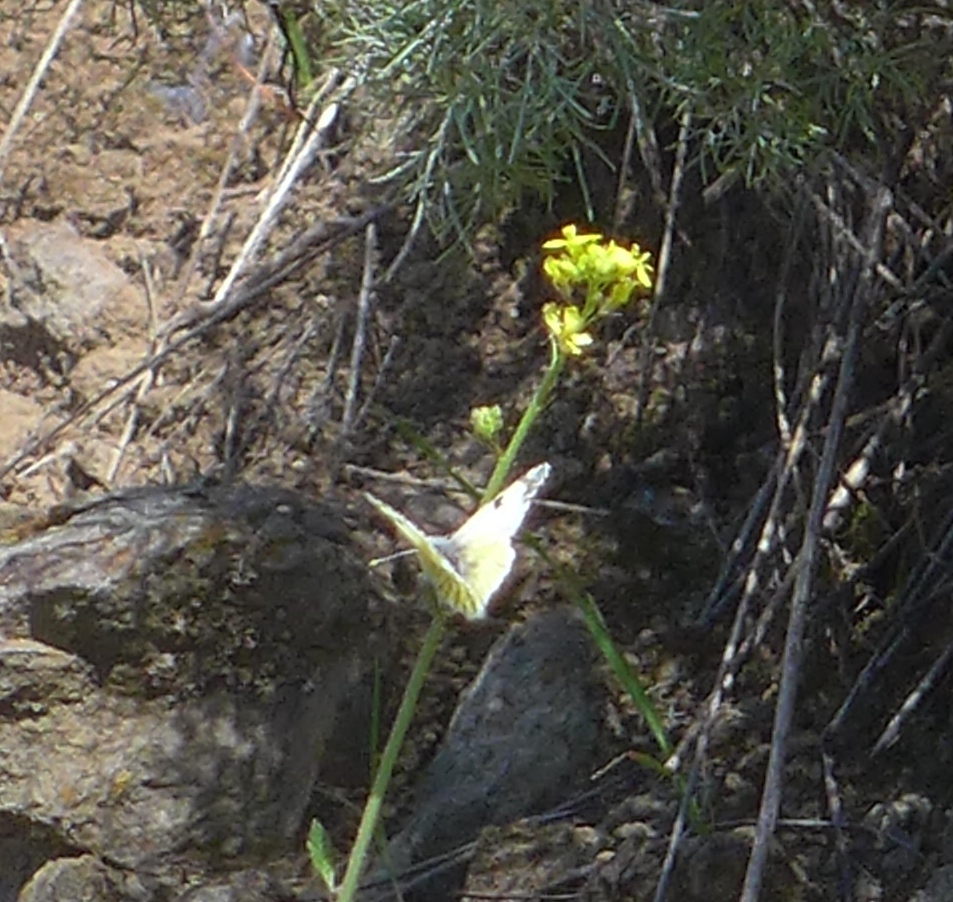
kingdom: Animalia
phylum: Arthropoda
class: Insecta
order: Lepidoptera
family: Pieridae
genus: Euchloe
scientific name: Euchloe ausonides
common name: Creamy marblewing
